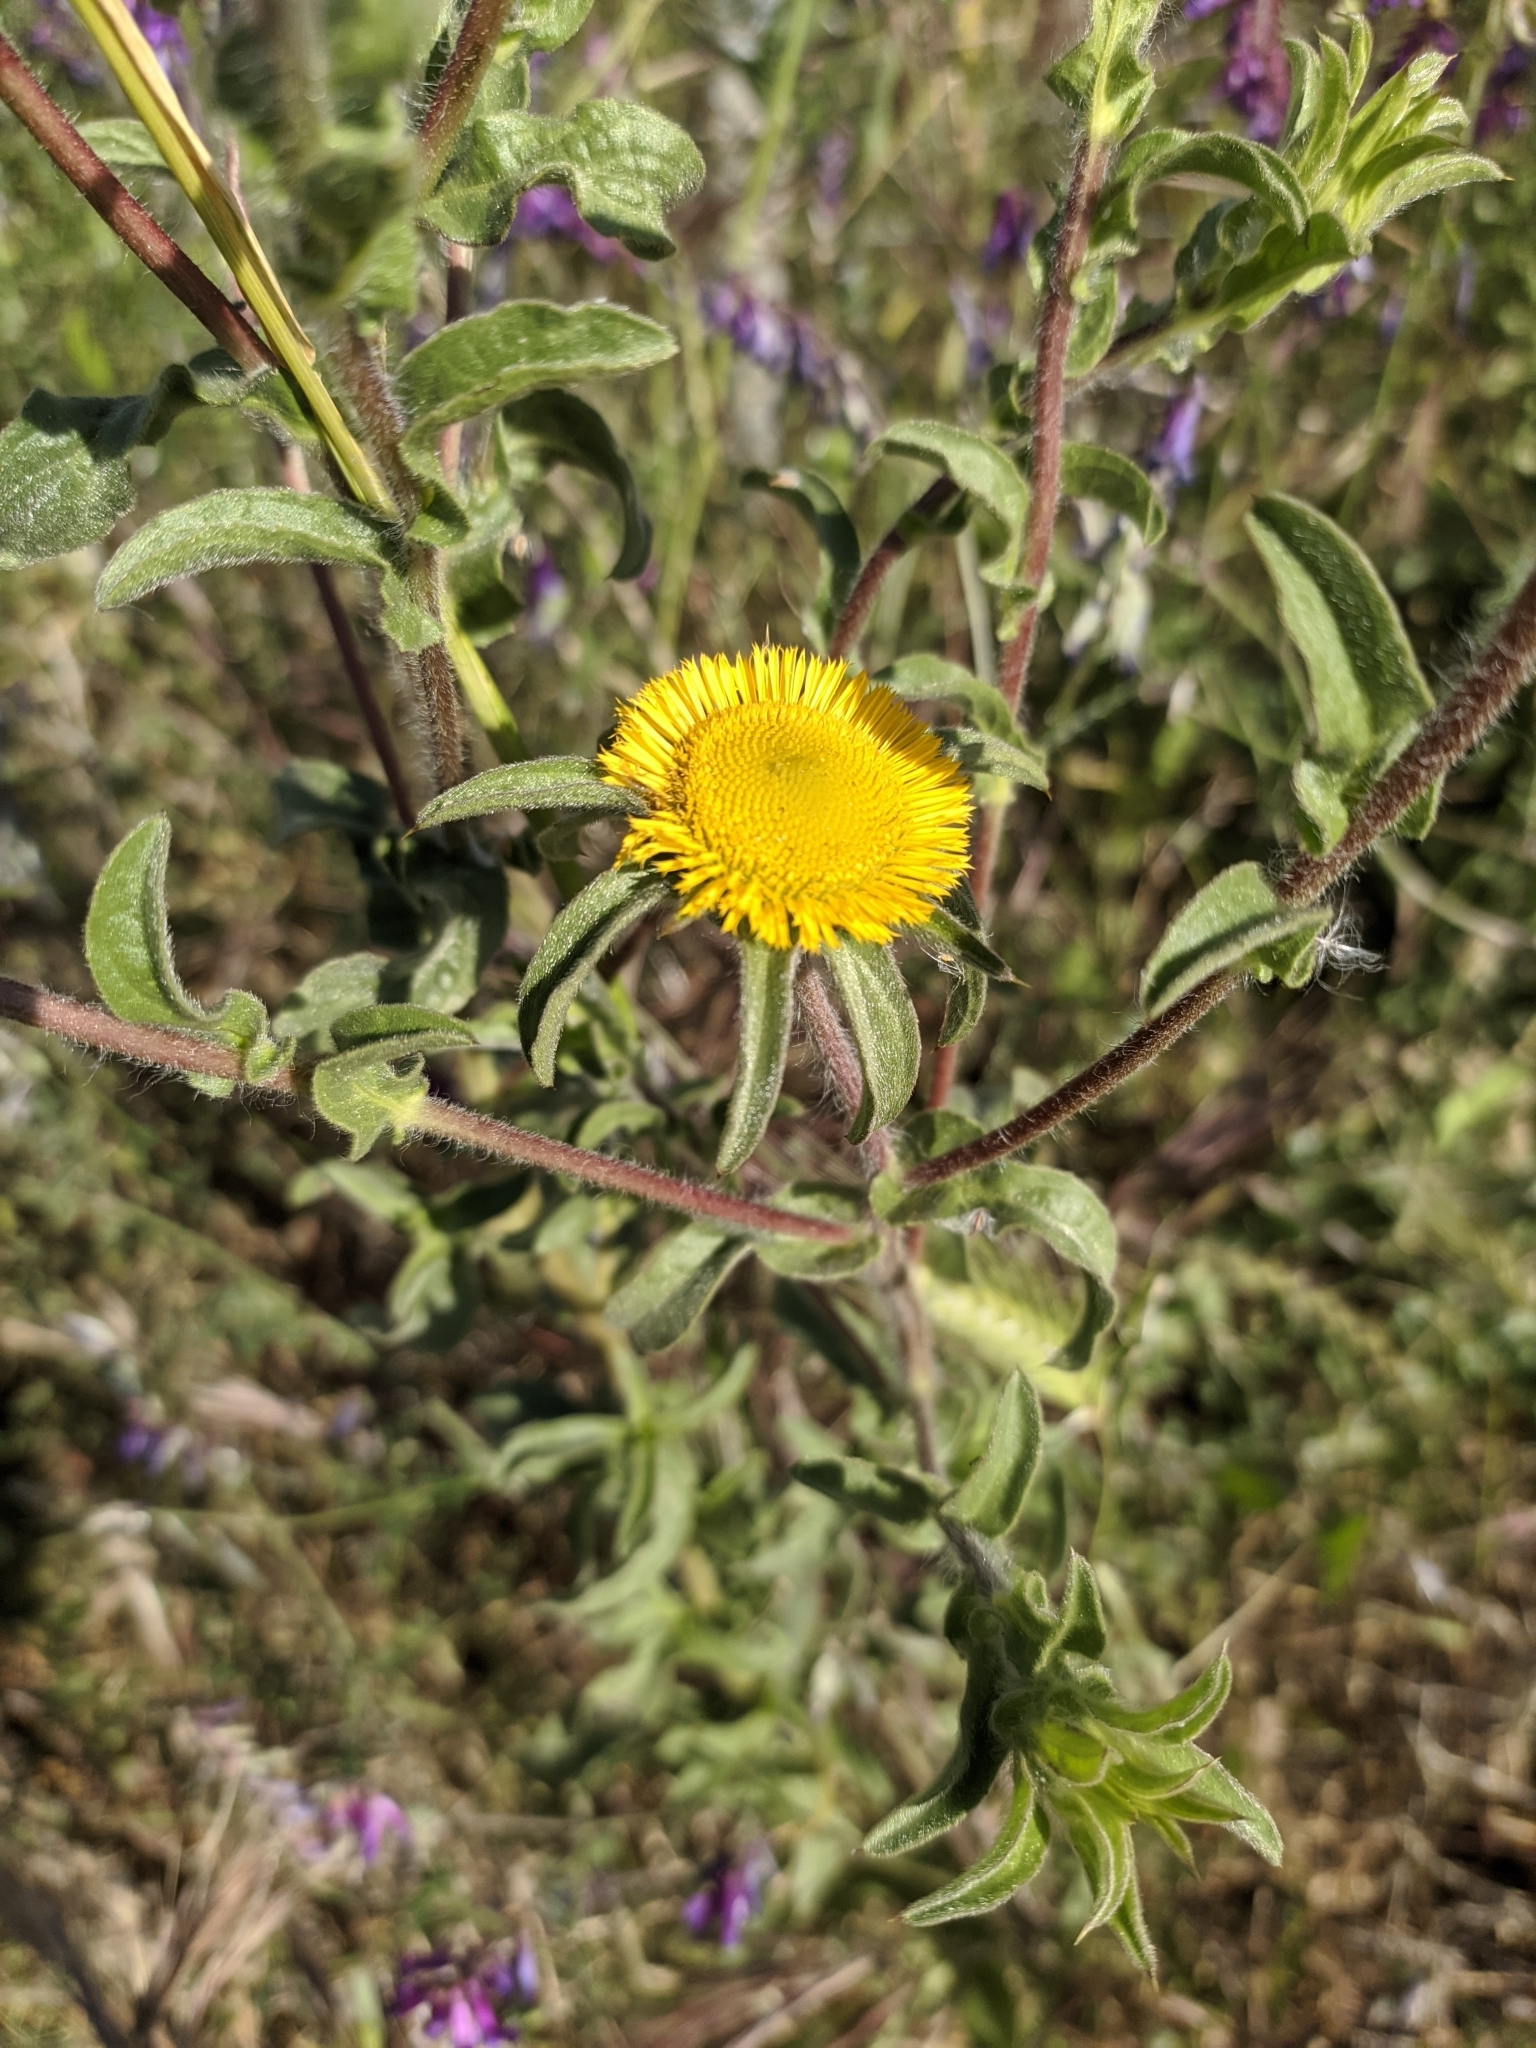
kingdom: Plantae
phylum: Tracheophyta
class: Magnoliopsida
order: Asterales
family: Asteraceae
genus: Pallenis
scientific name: Pallenis spinosa
